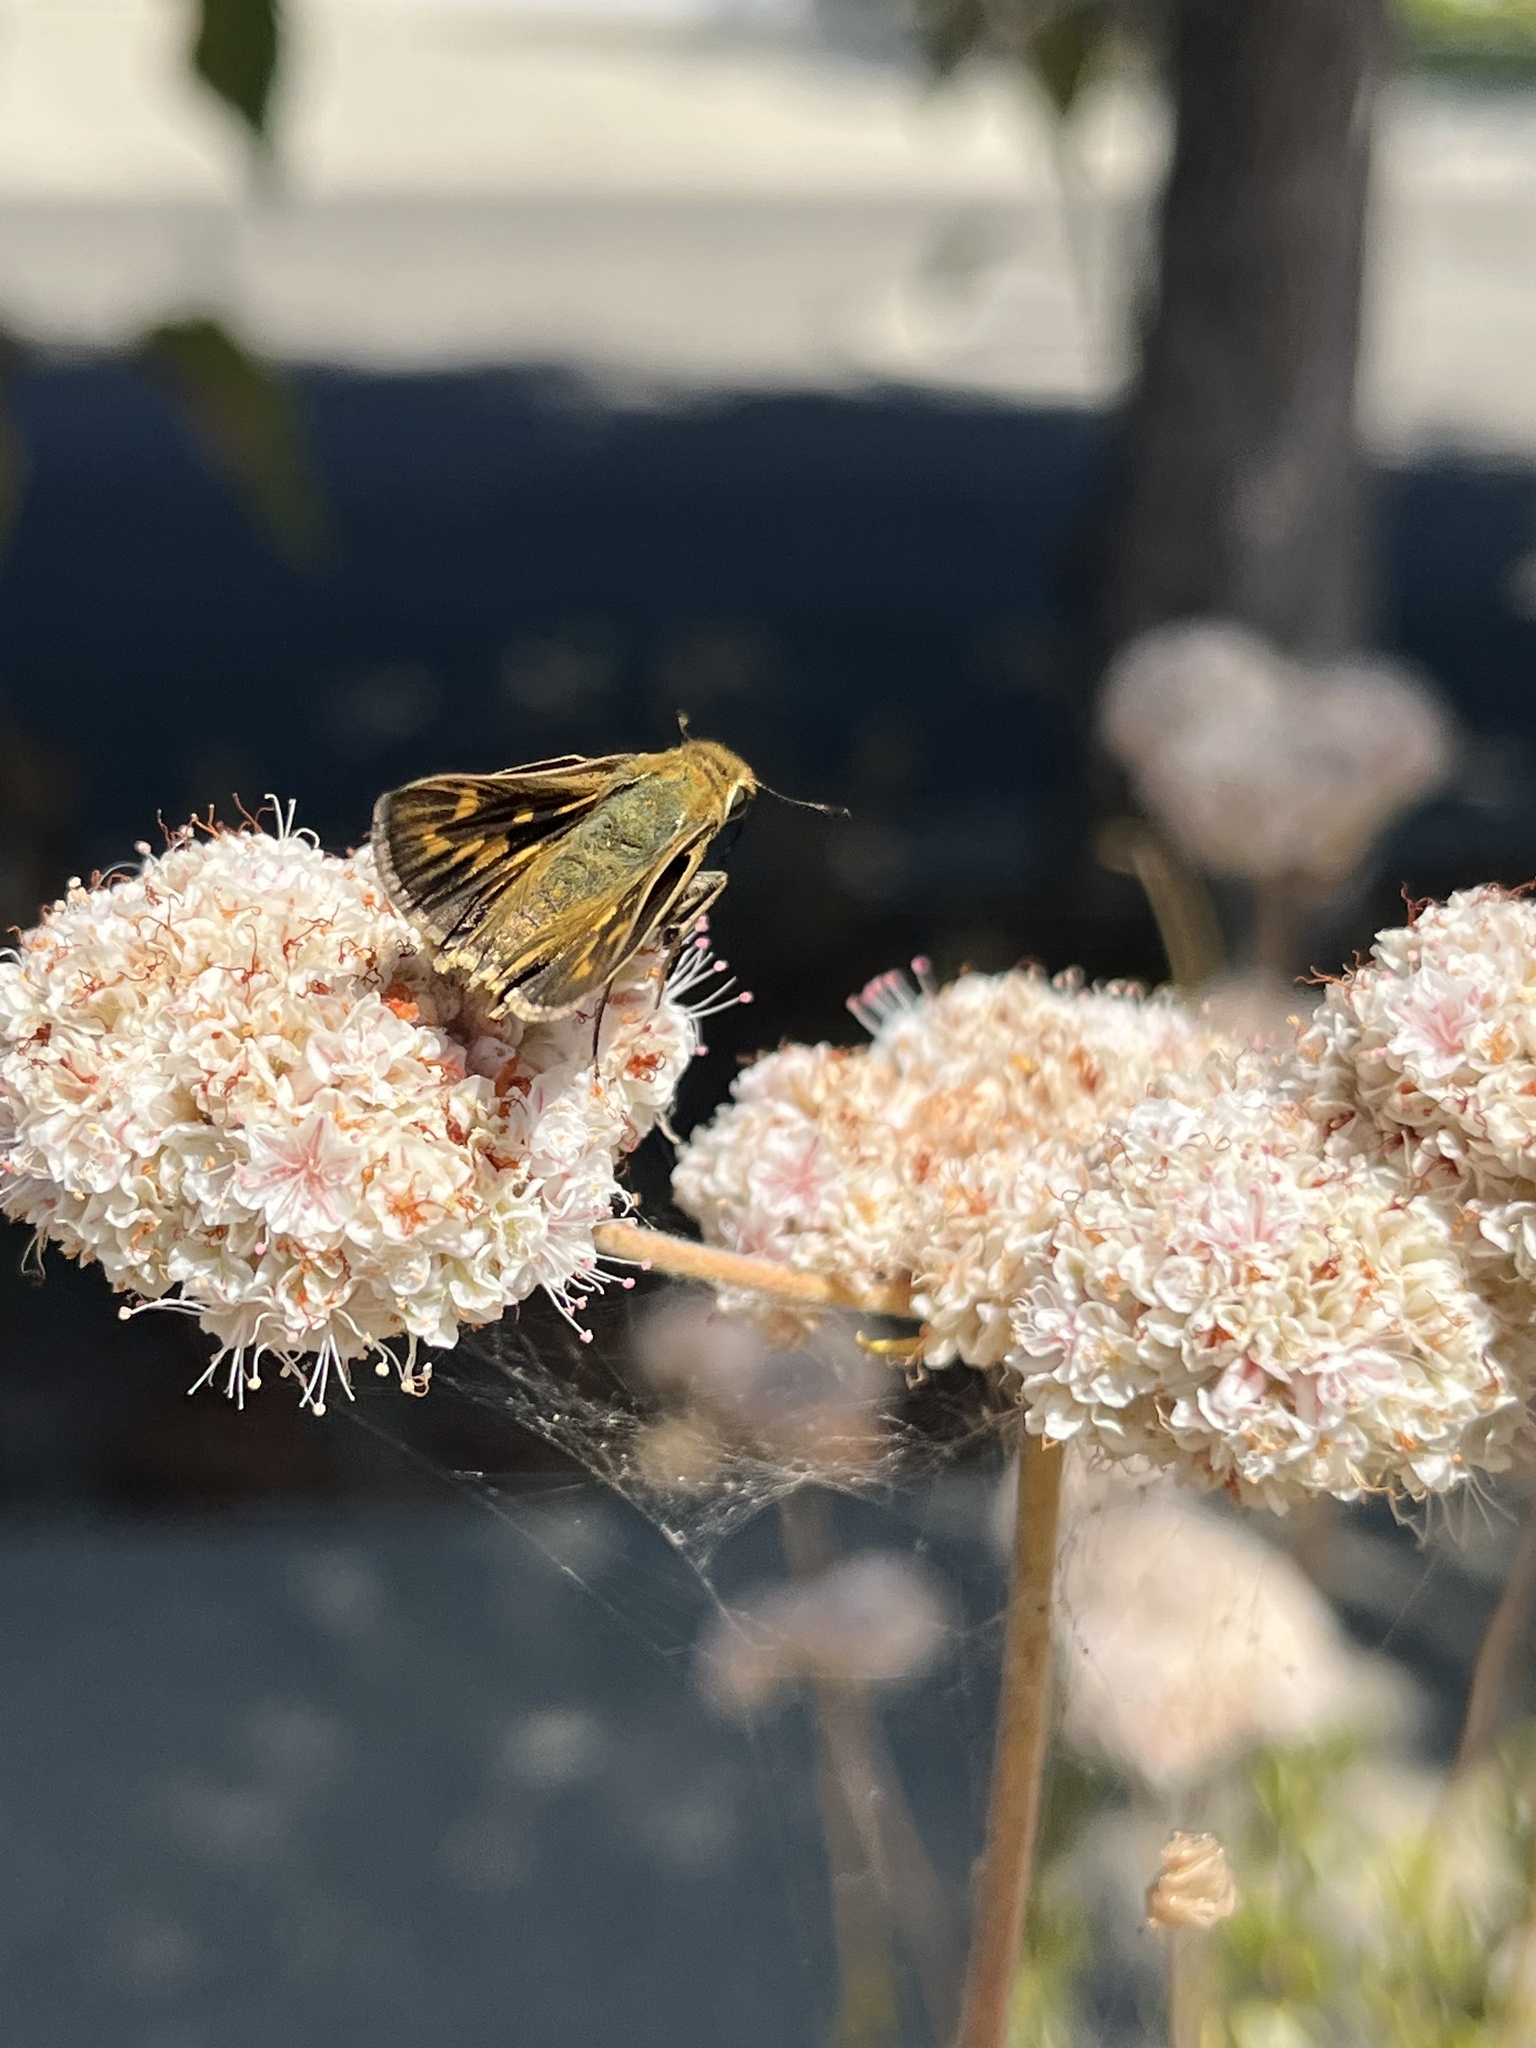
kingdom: Animalia
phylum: Arthropoda
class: Insecta
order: Lepidoptera
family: Hesperiidae
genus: Hylephila
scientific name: Hylephila phyleus
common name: Fiery skipper
